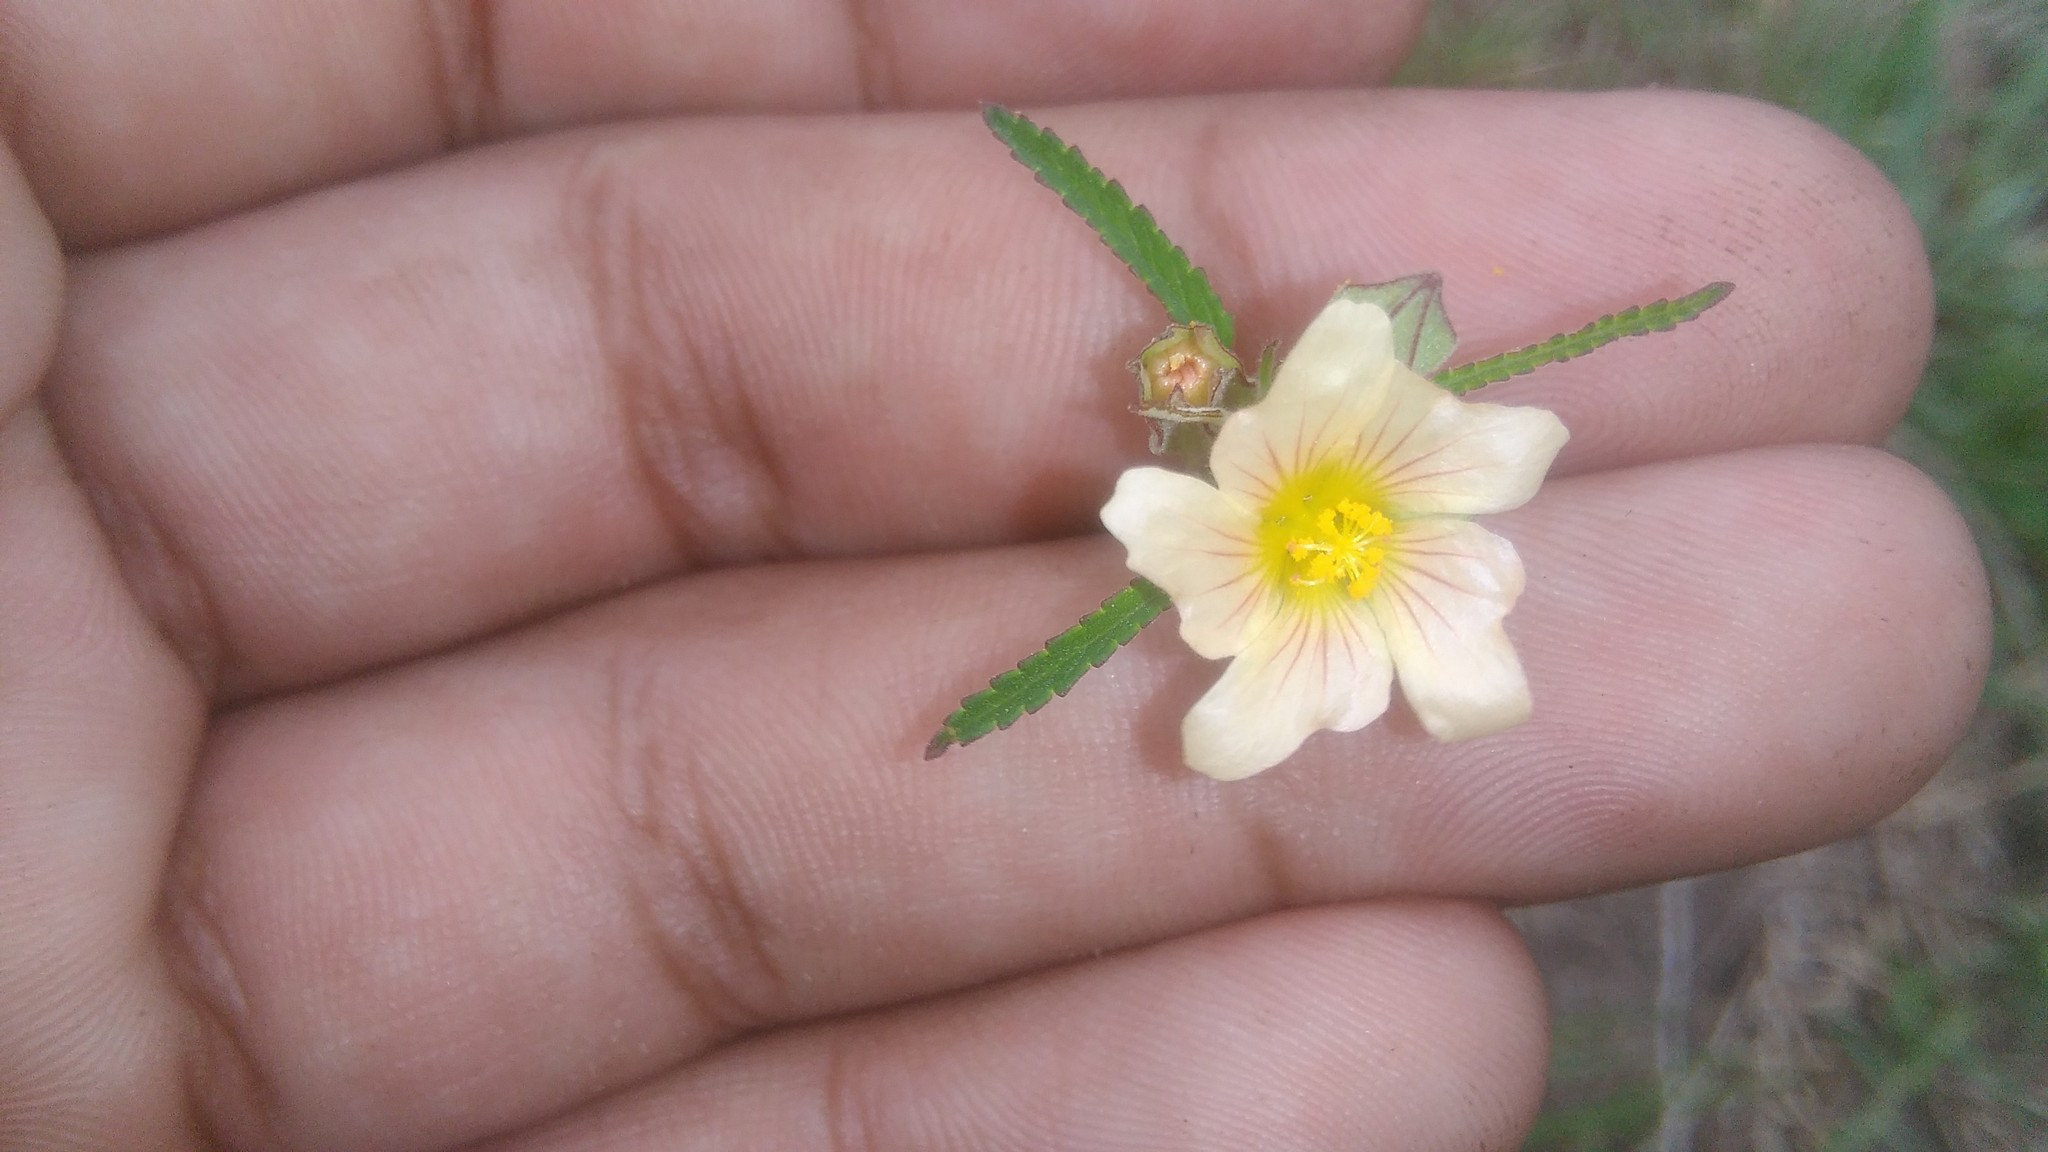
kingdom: Plantae
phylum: Tracheophyta
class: Magnoliopsida
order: Malvales
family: Malvaceae
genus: Sida
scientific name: Sida spinosa
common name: Prickly fanpetals
